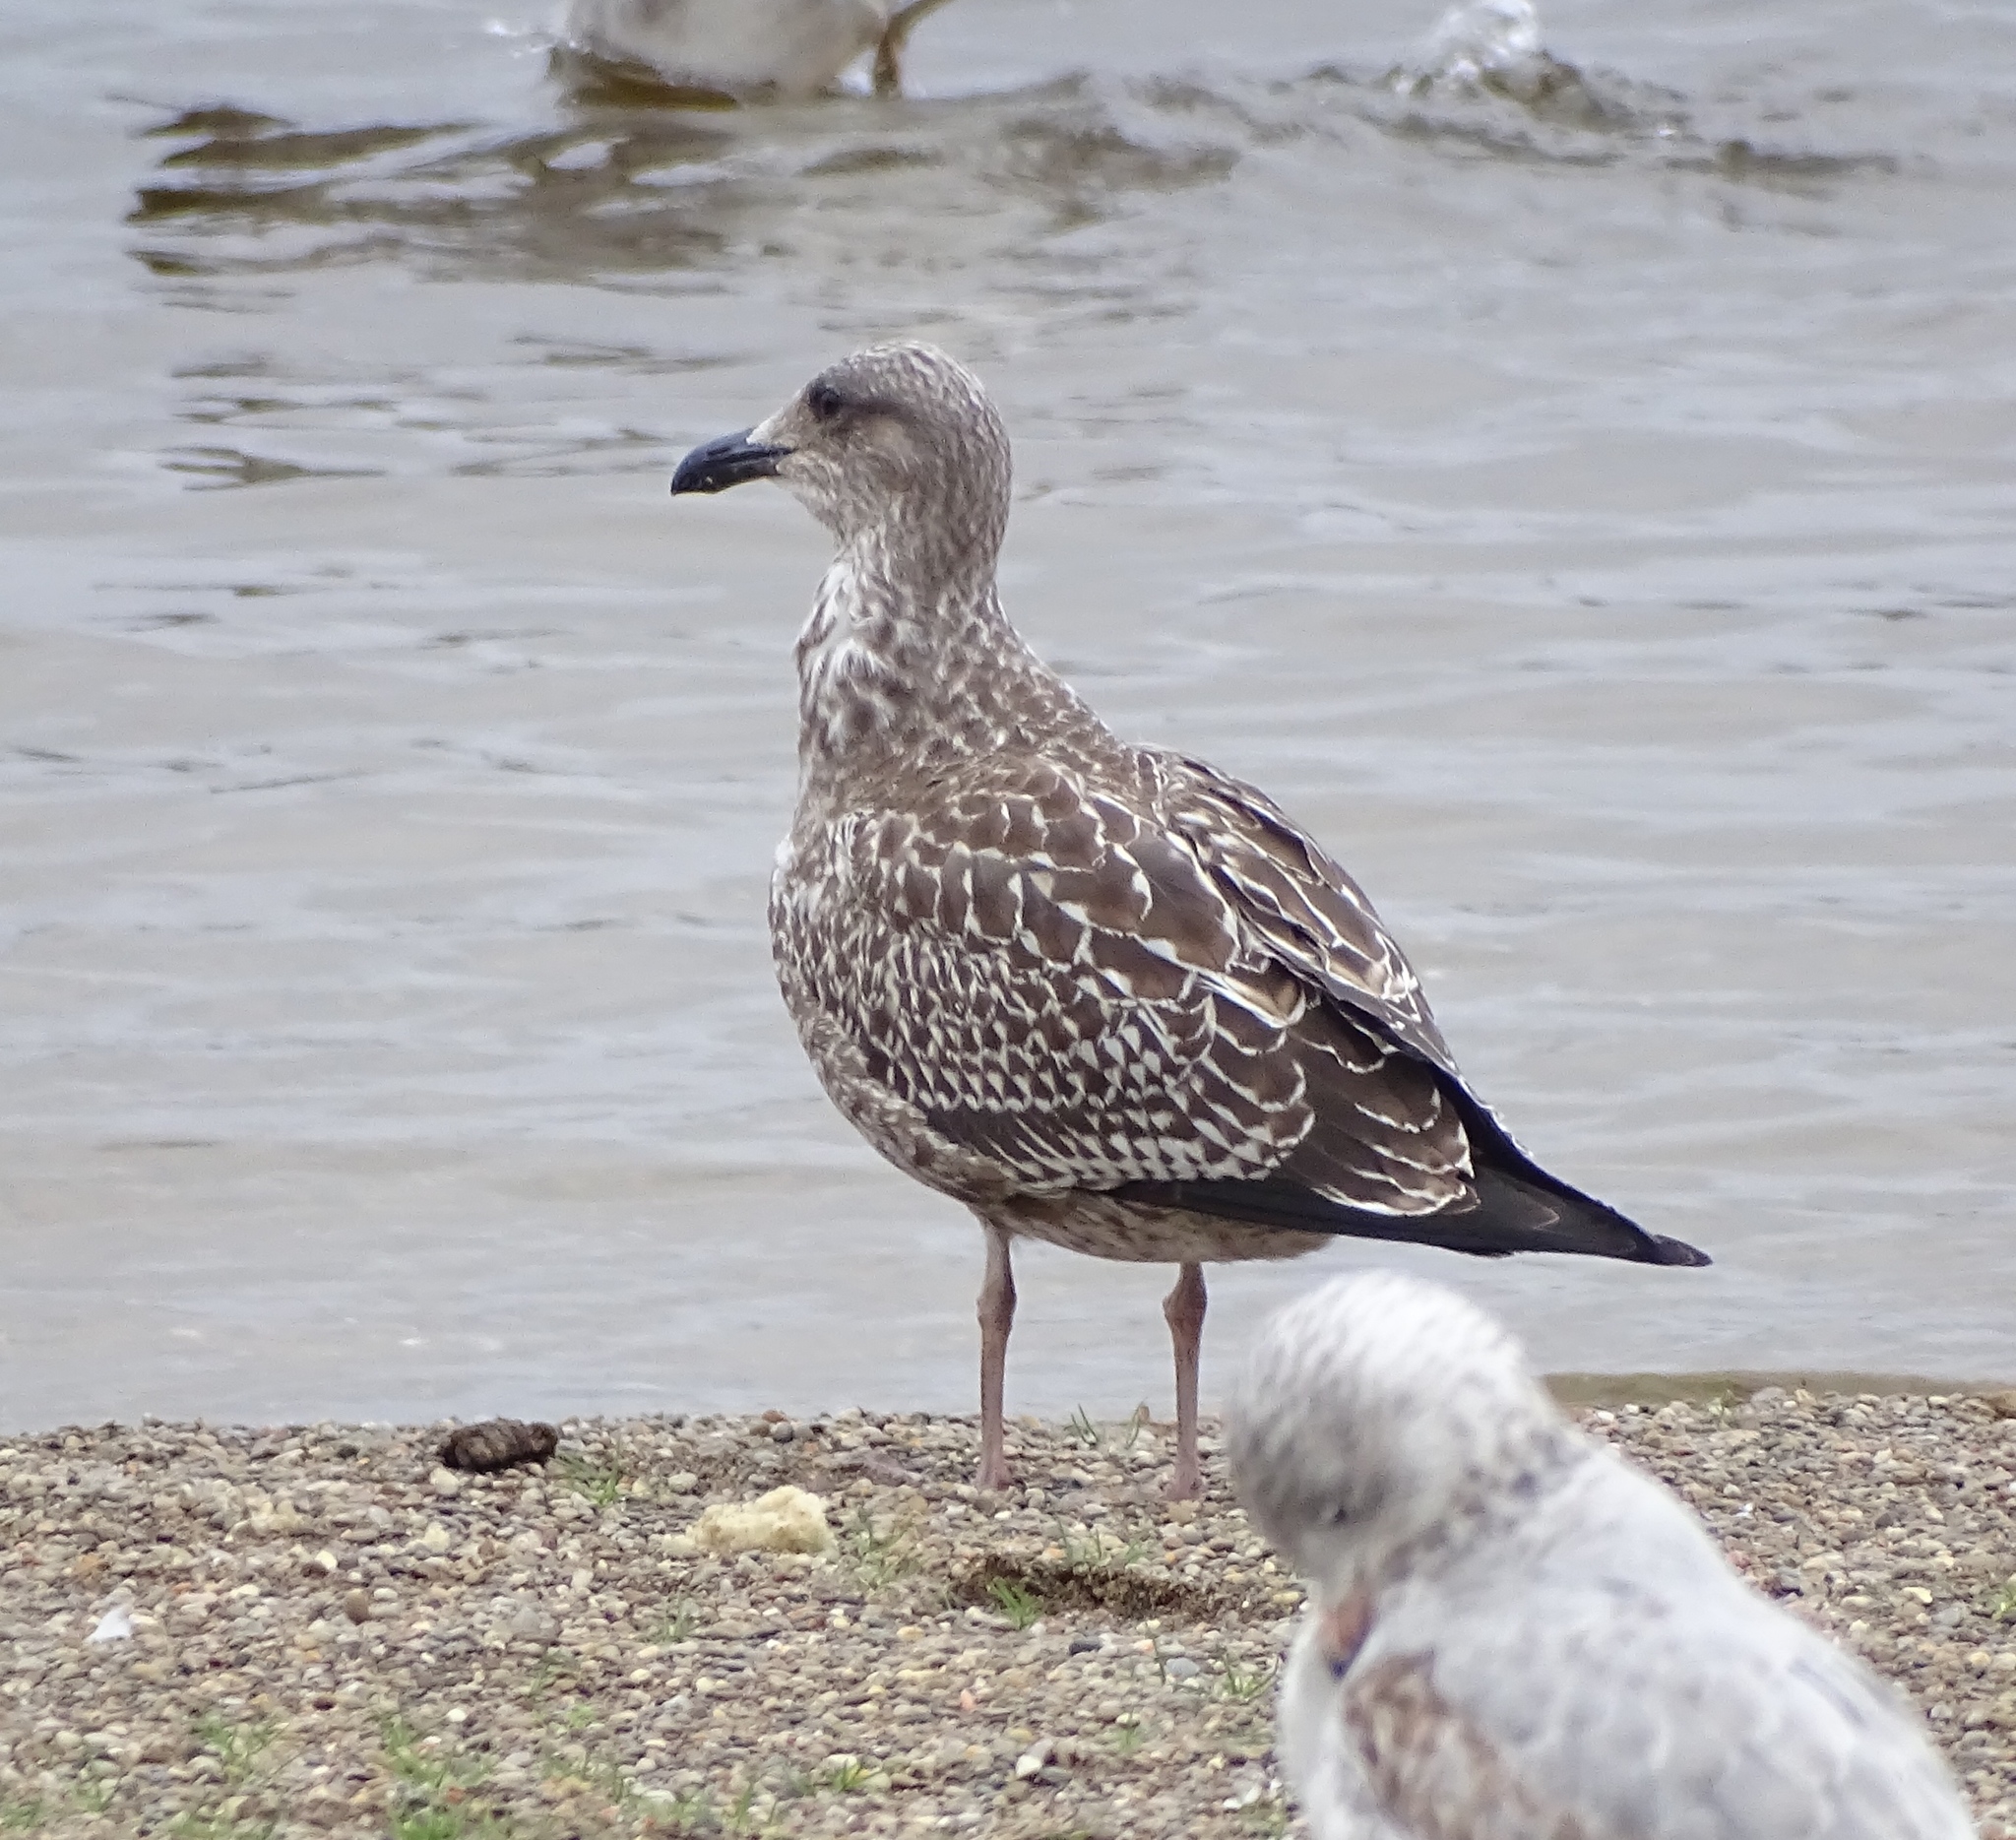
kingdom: Animalia
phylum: Chordata
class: Aves
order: Charadriiformes
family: Laridae
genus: Larus
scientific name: Larus fuscus
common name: Lesser black-backed gull
